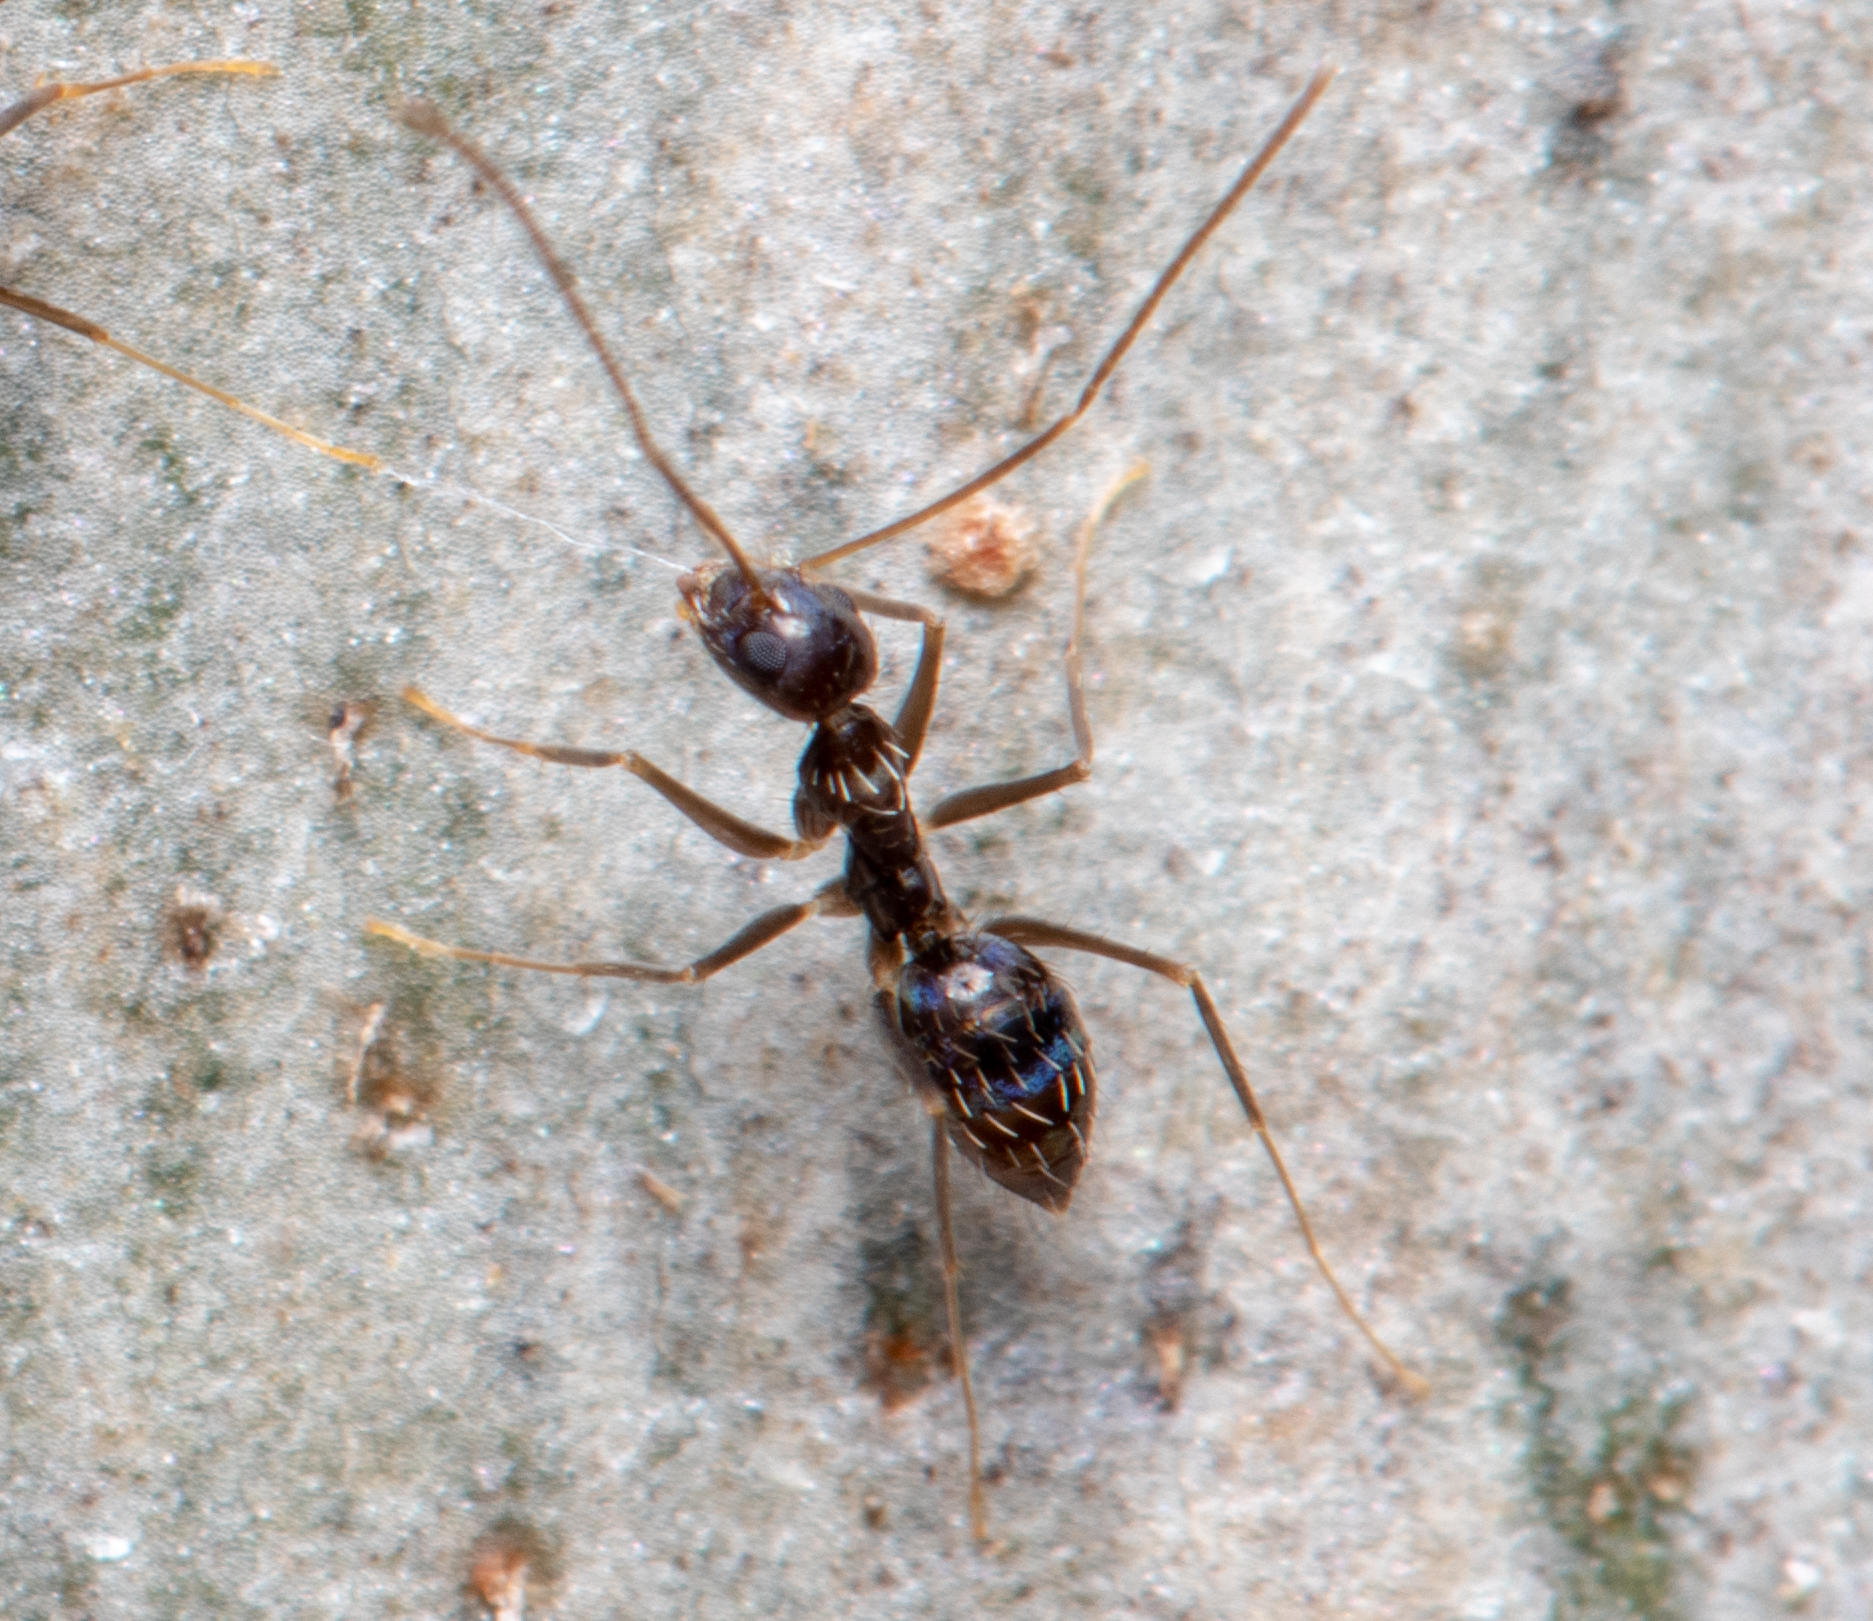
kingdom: Animalia
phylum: Arthropoda
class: Insecta
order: Hymenoptera
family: Formicidae
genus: Paratrechina
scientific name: Paratrechina longicornis
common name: Longhorned crazy ant
